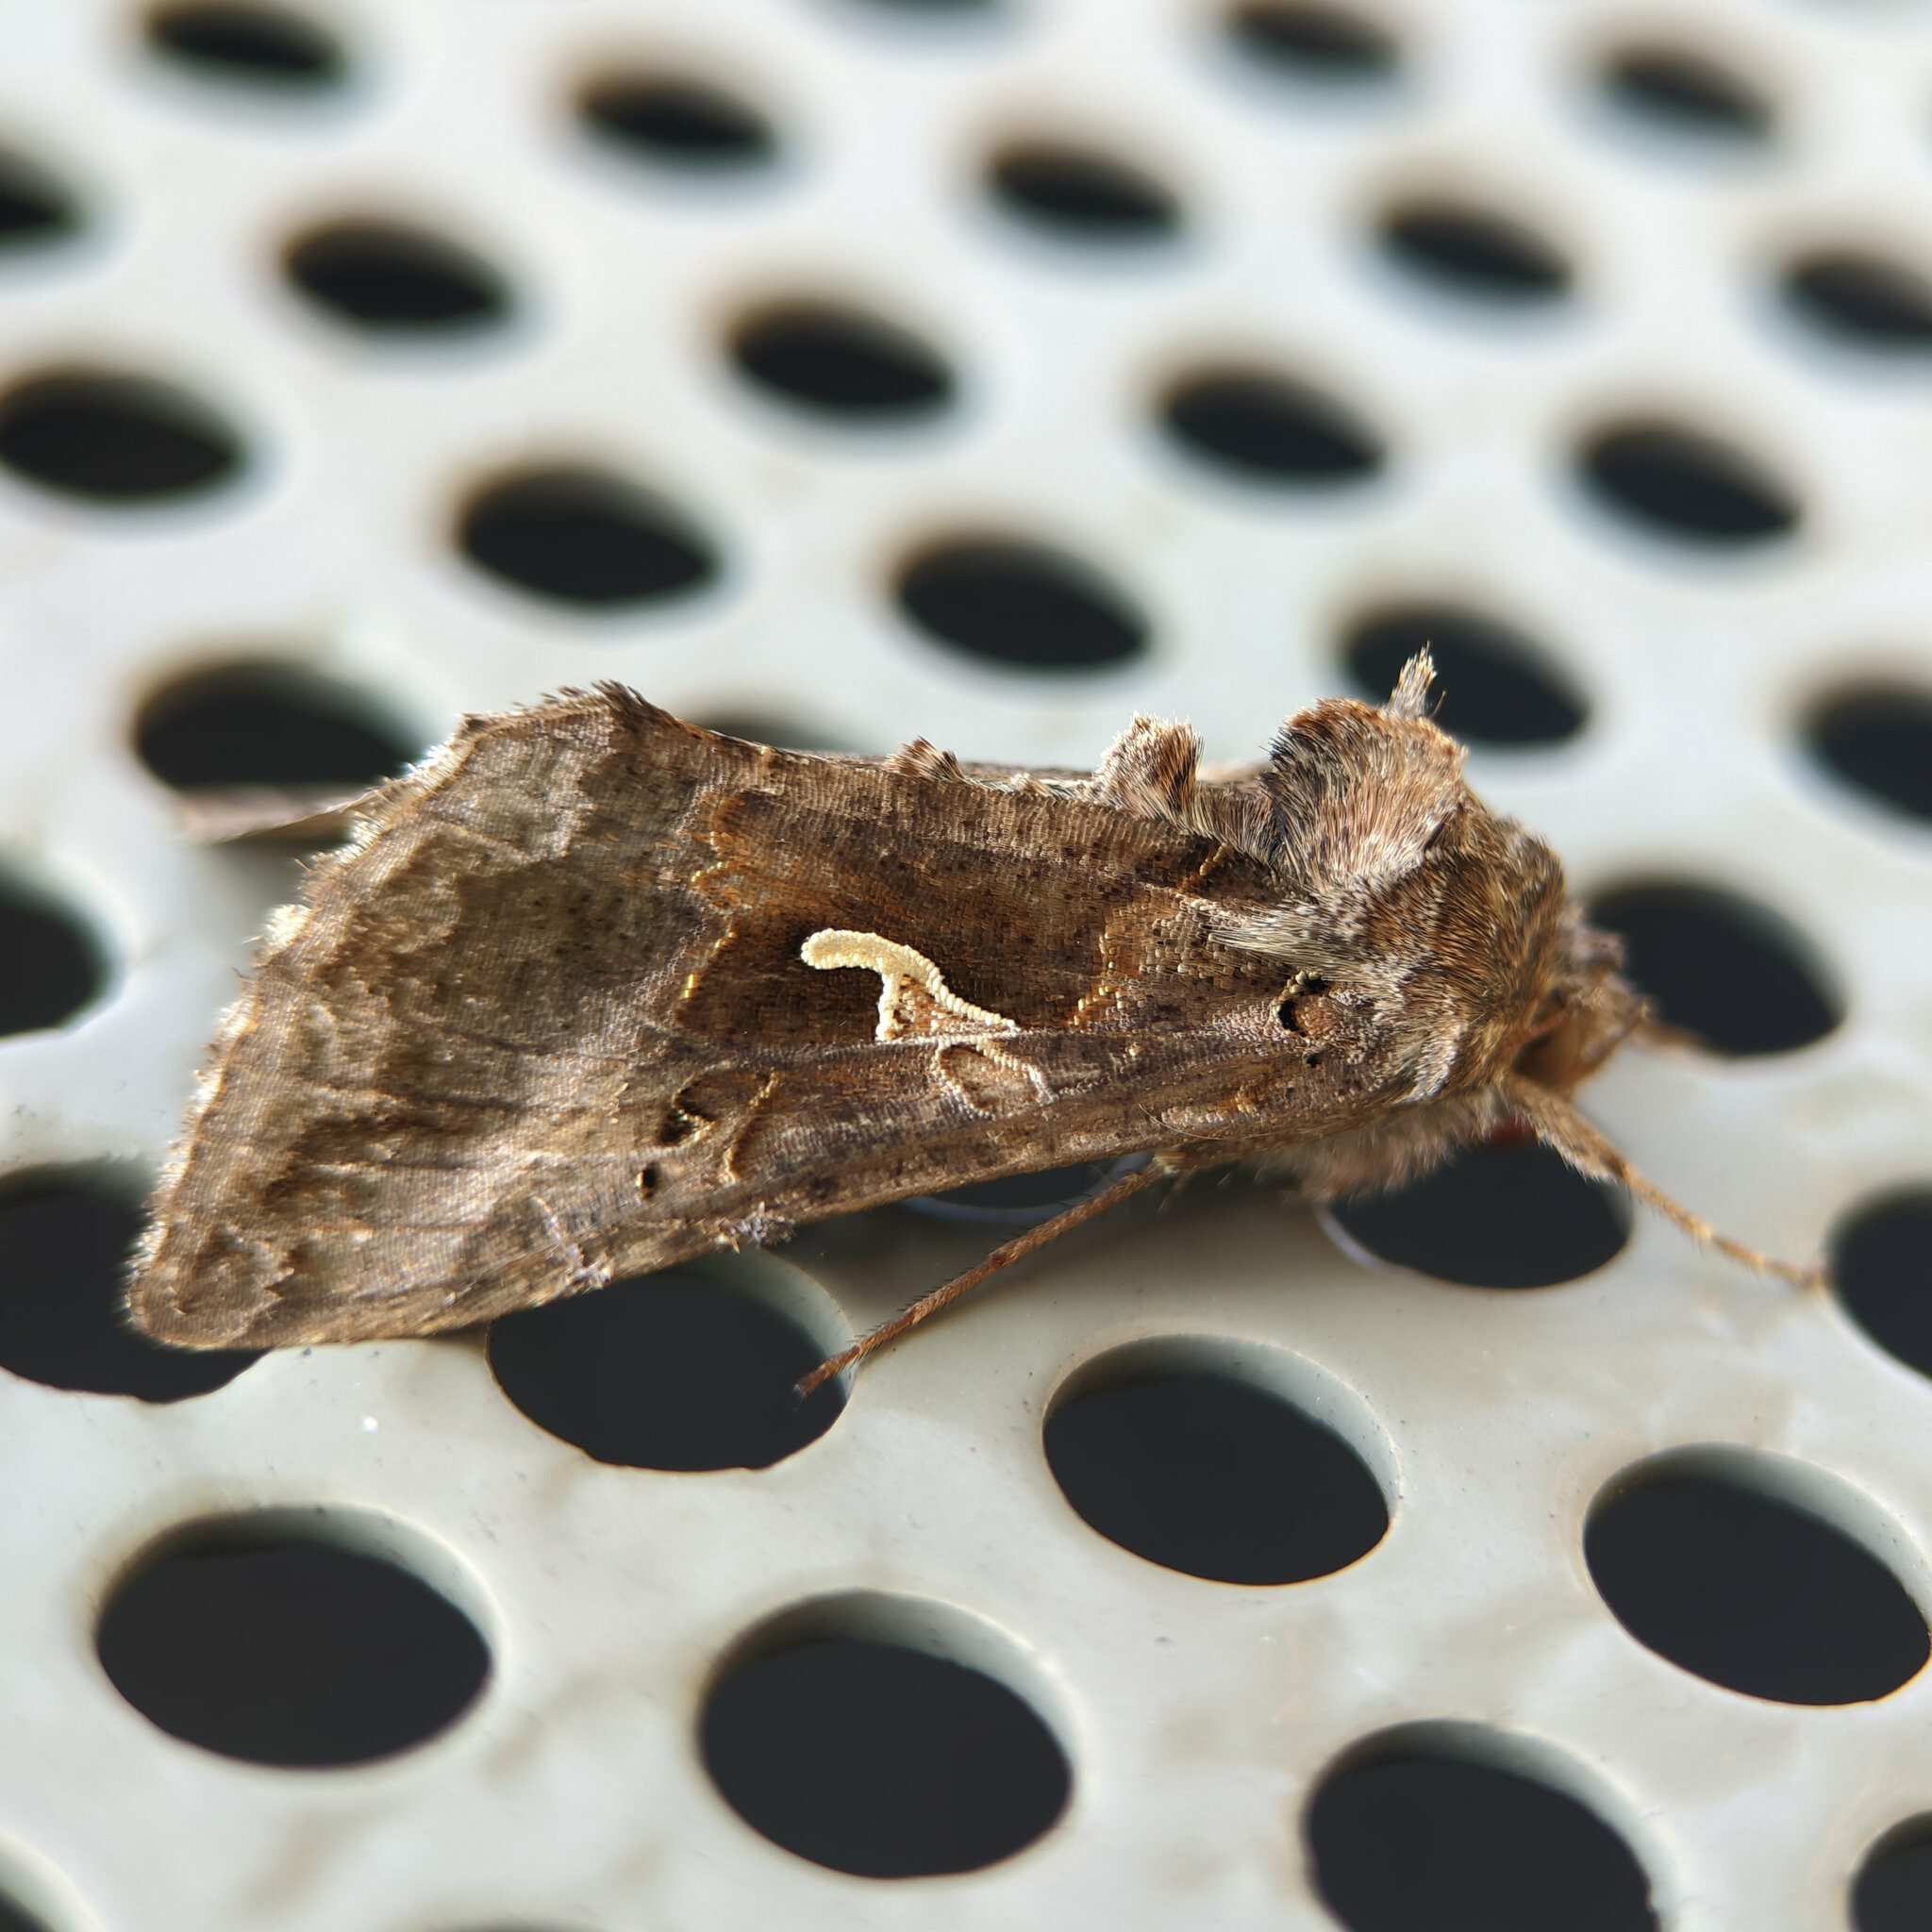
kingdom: Animalia
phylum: Arthropoda
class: Insecta
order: Lepidoptera
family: Noctuidae
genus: Autographa
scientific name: Autographa gamma
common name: Silver y
